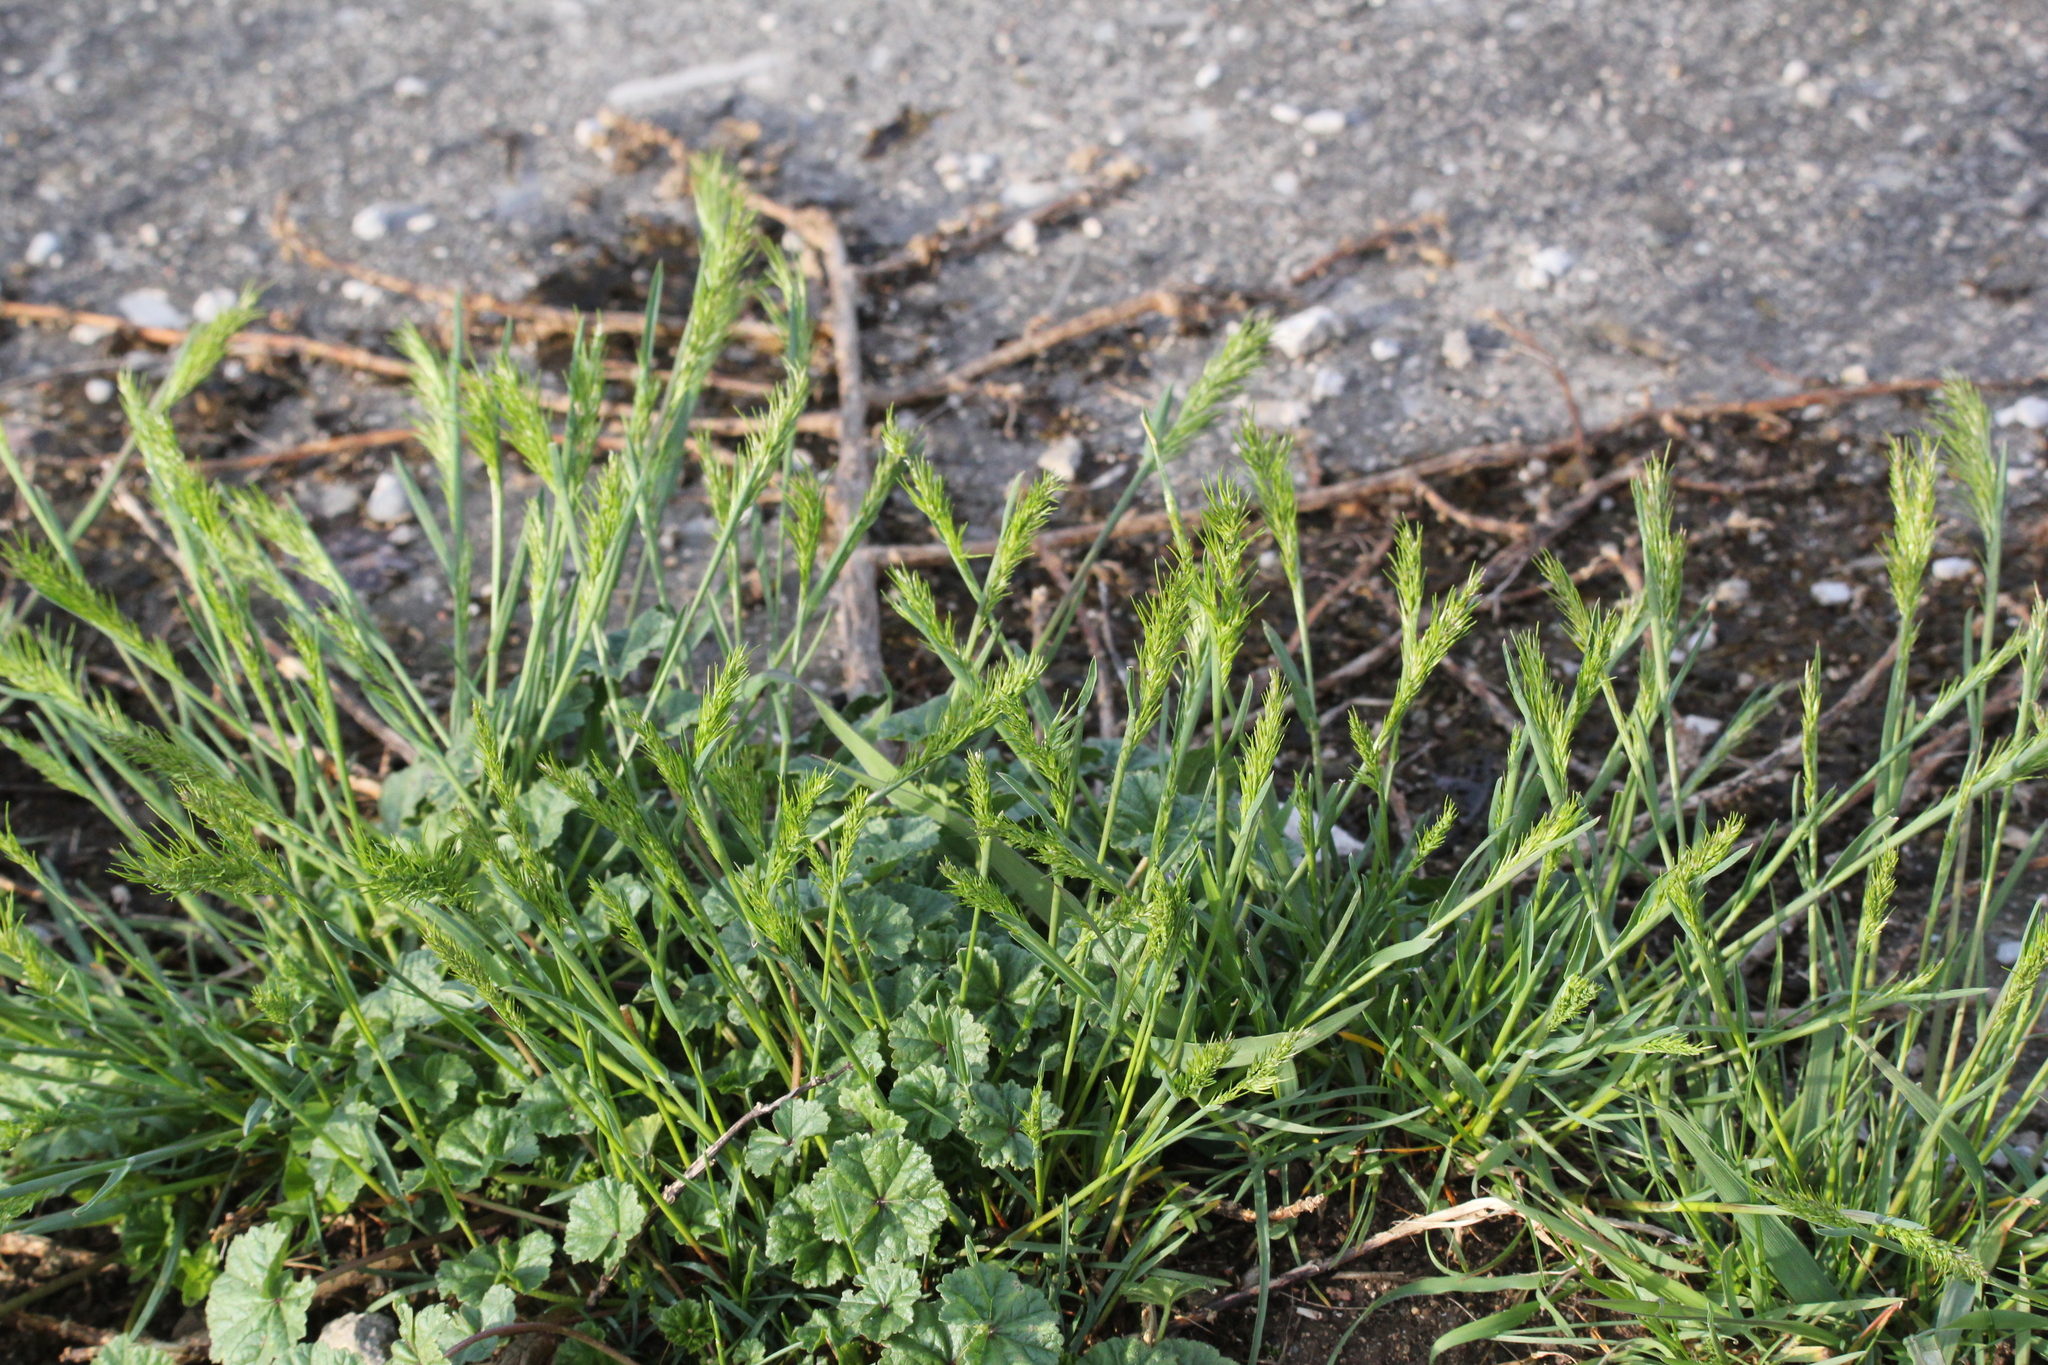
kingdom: Plantae
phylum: Tracheophyta
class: Liliopsida
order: Poales
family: Poaceae
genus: Poa
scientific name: Poa bulbosa
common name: Bulbous bluegrass
